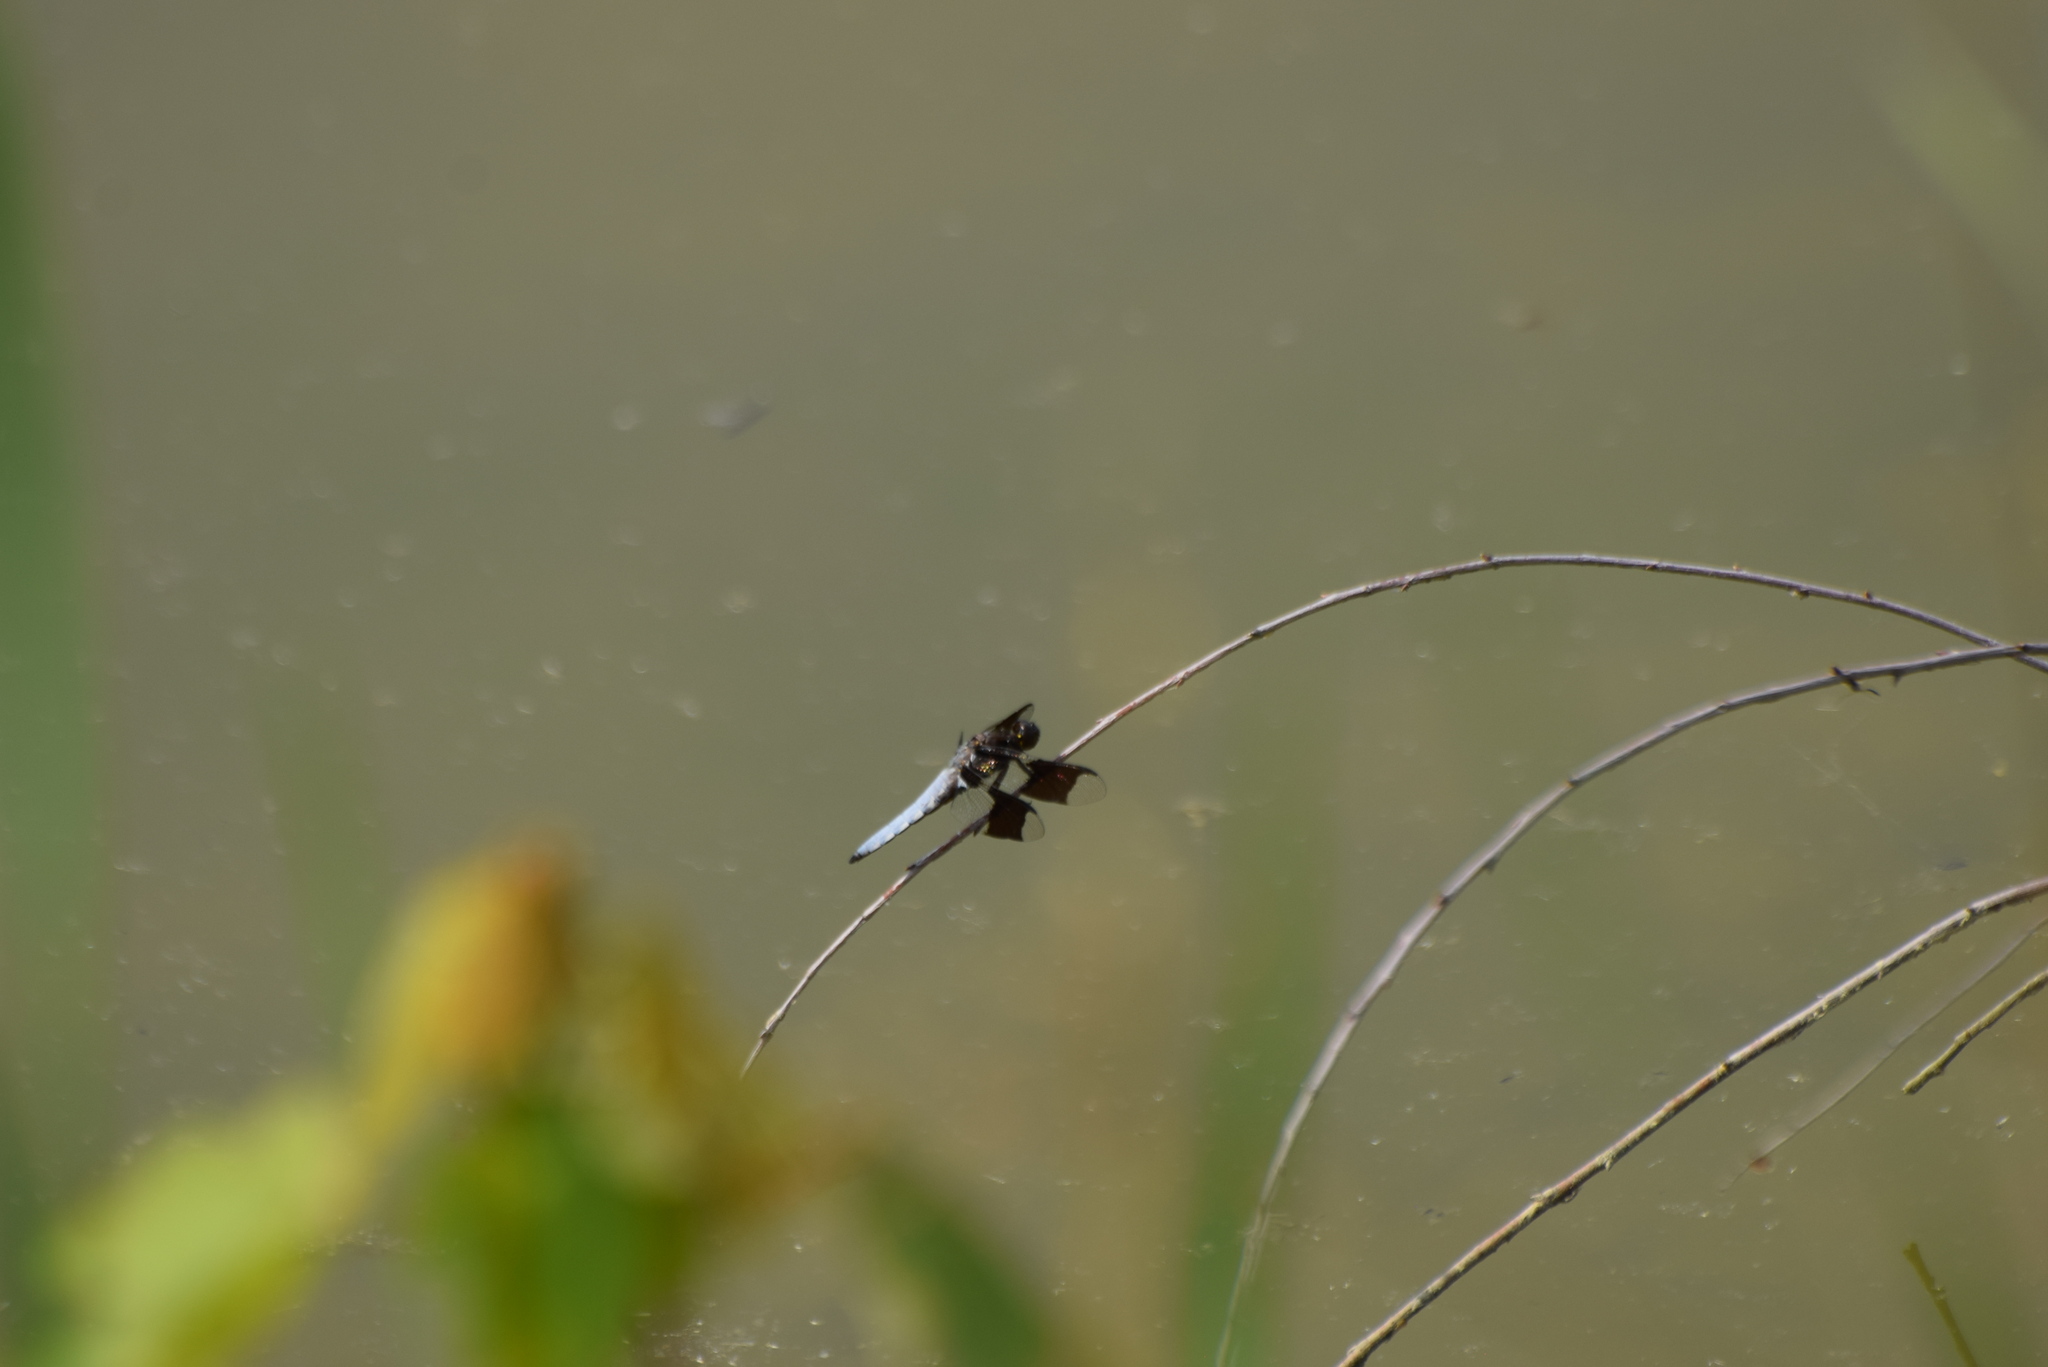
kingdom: Animalia
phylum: Arthropoda
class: Insecta
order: Odonata
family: Libellulidae
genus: Plathemis
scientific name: Plathemis lydia
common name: Common whitetail
